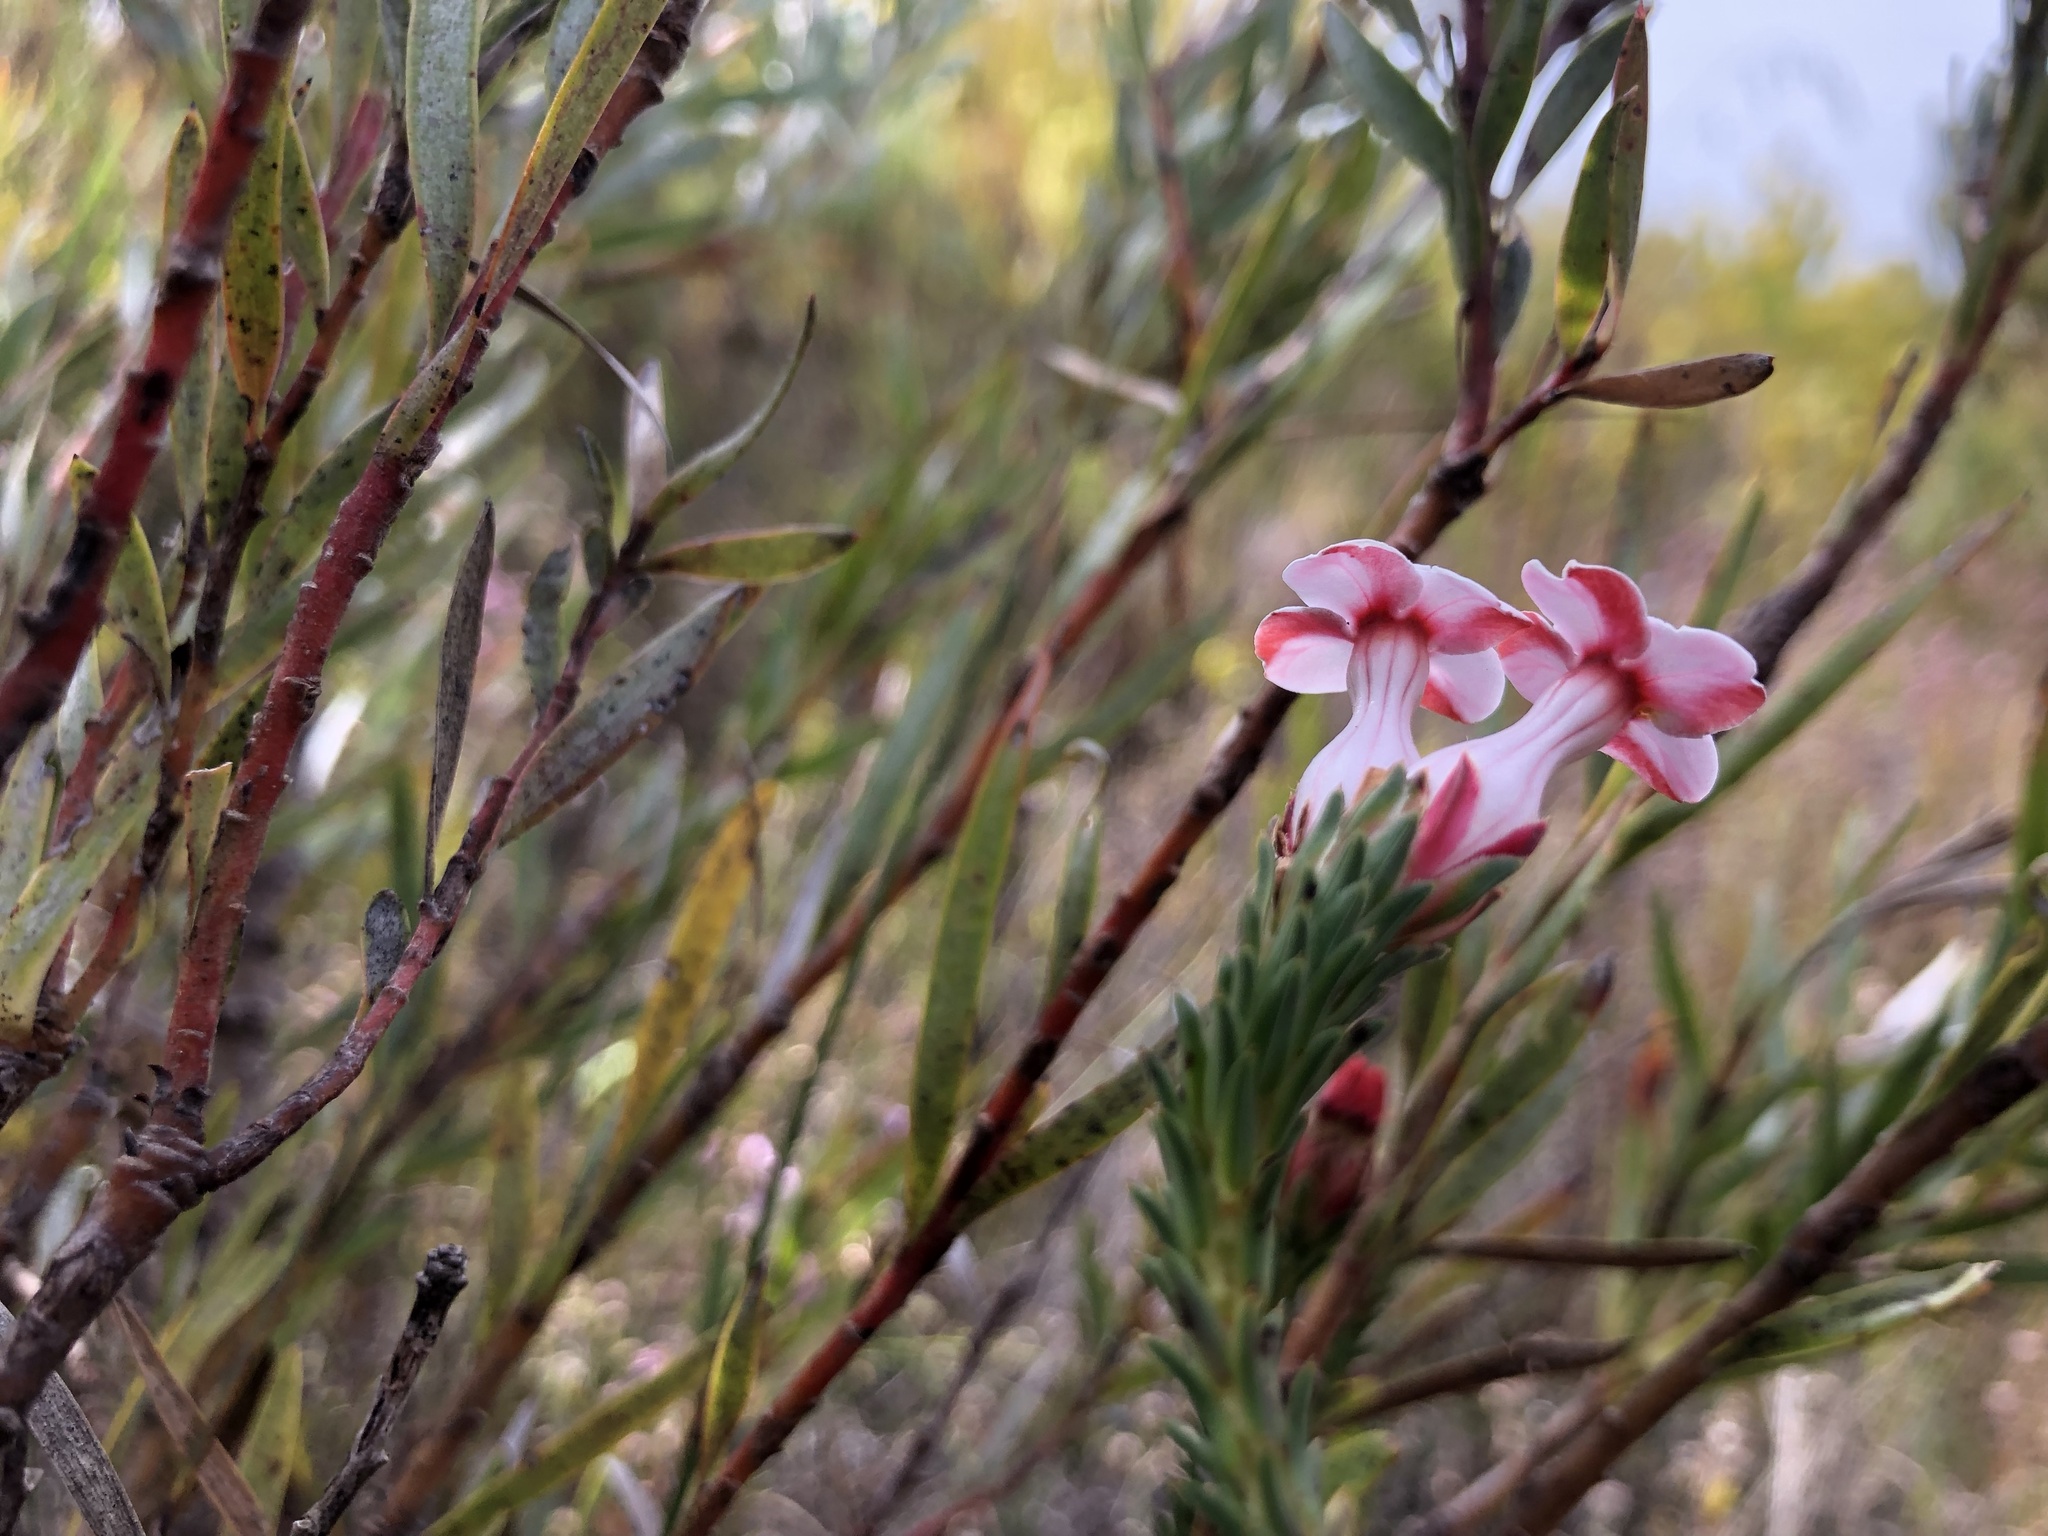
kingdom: Plantae
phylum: Tracheophyta
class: Magnoliopsida
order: Ericales
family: Ericaceae
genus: Erica
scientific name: Erica ampullacea
